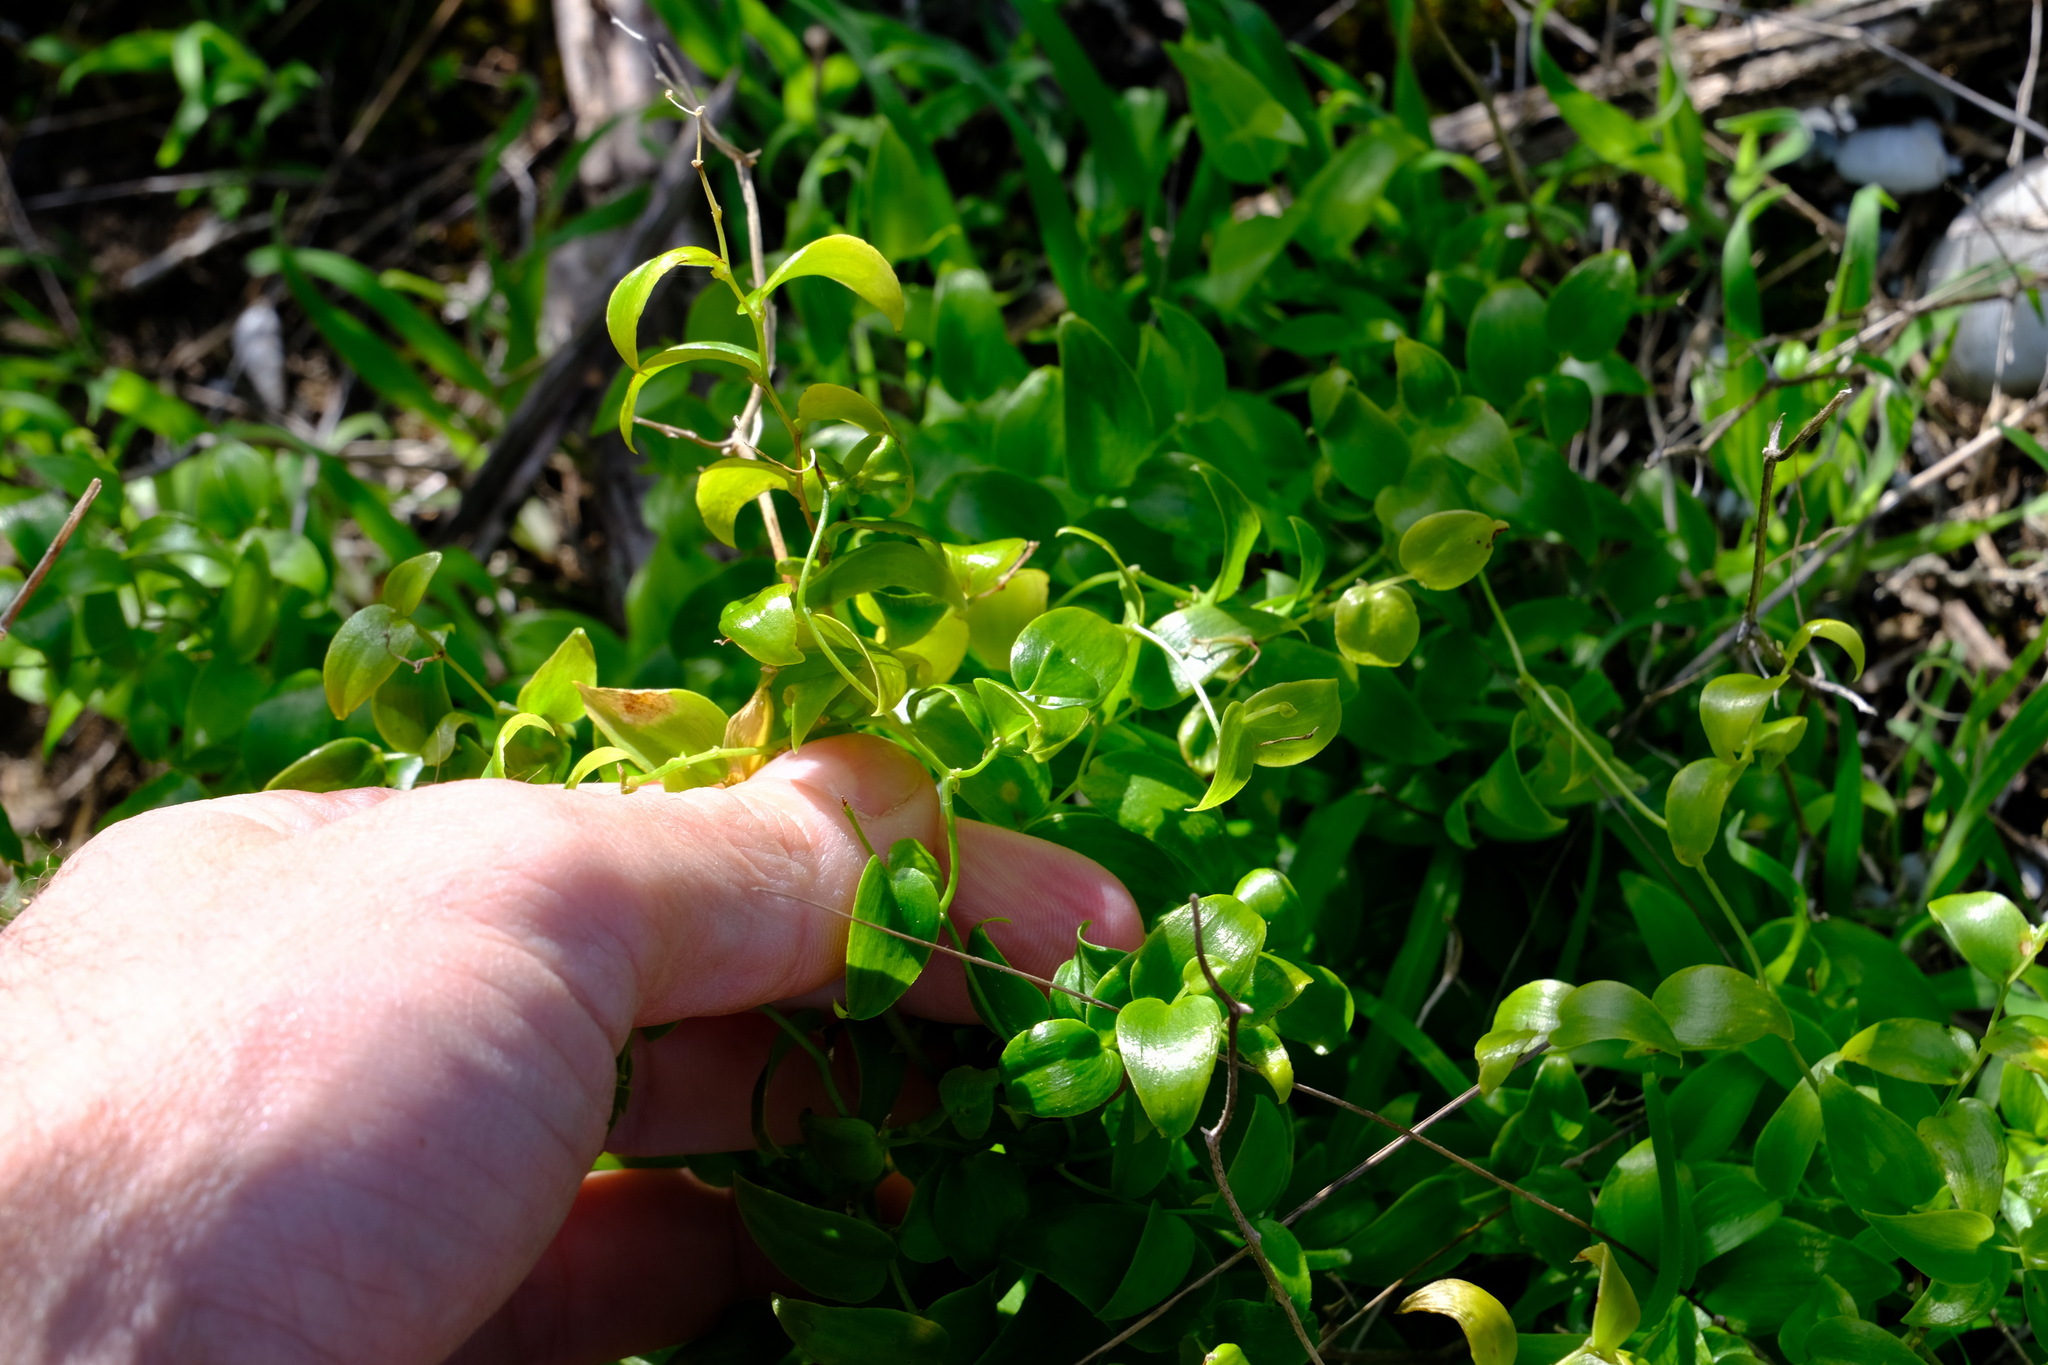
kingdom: Plantae
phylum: Tracheophyta
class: Liliopsida
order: Asparagales
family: Asparagaceae
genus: Asparagus
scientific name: Asparagus asparagoides
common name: African asparagus fern
